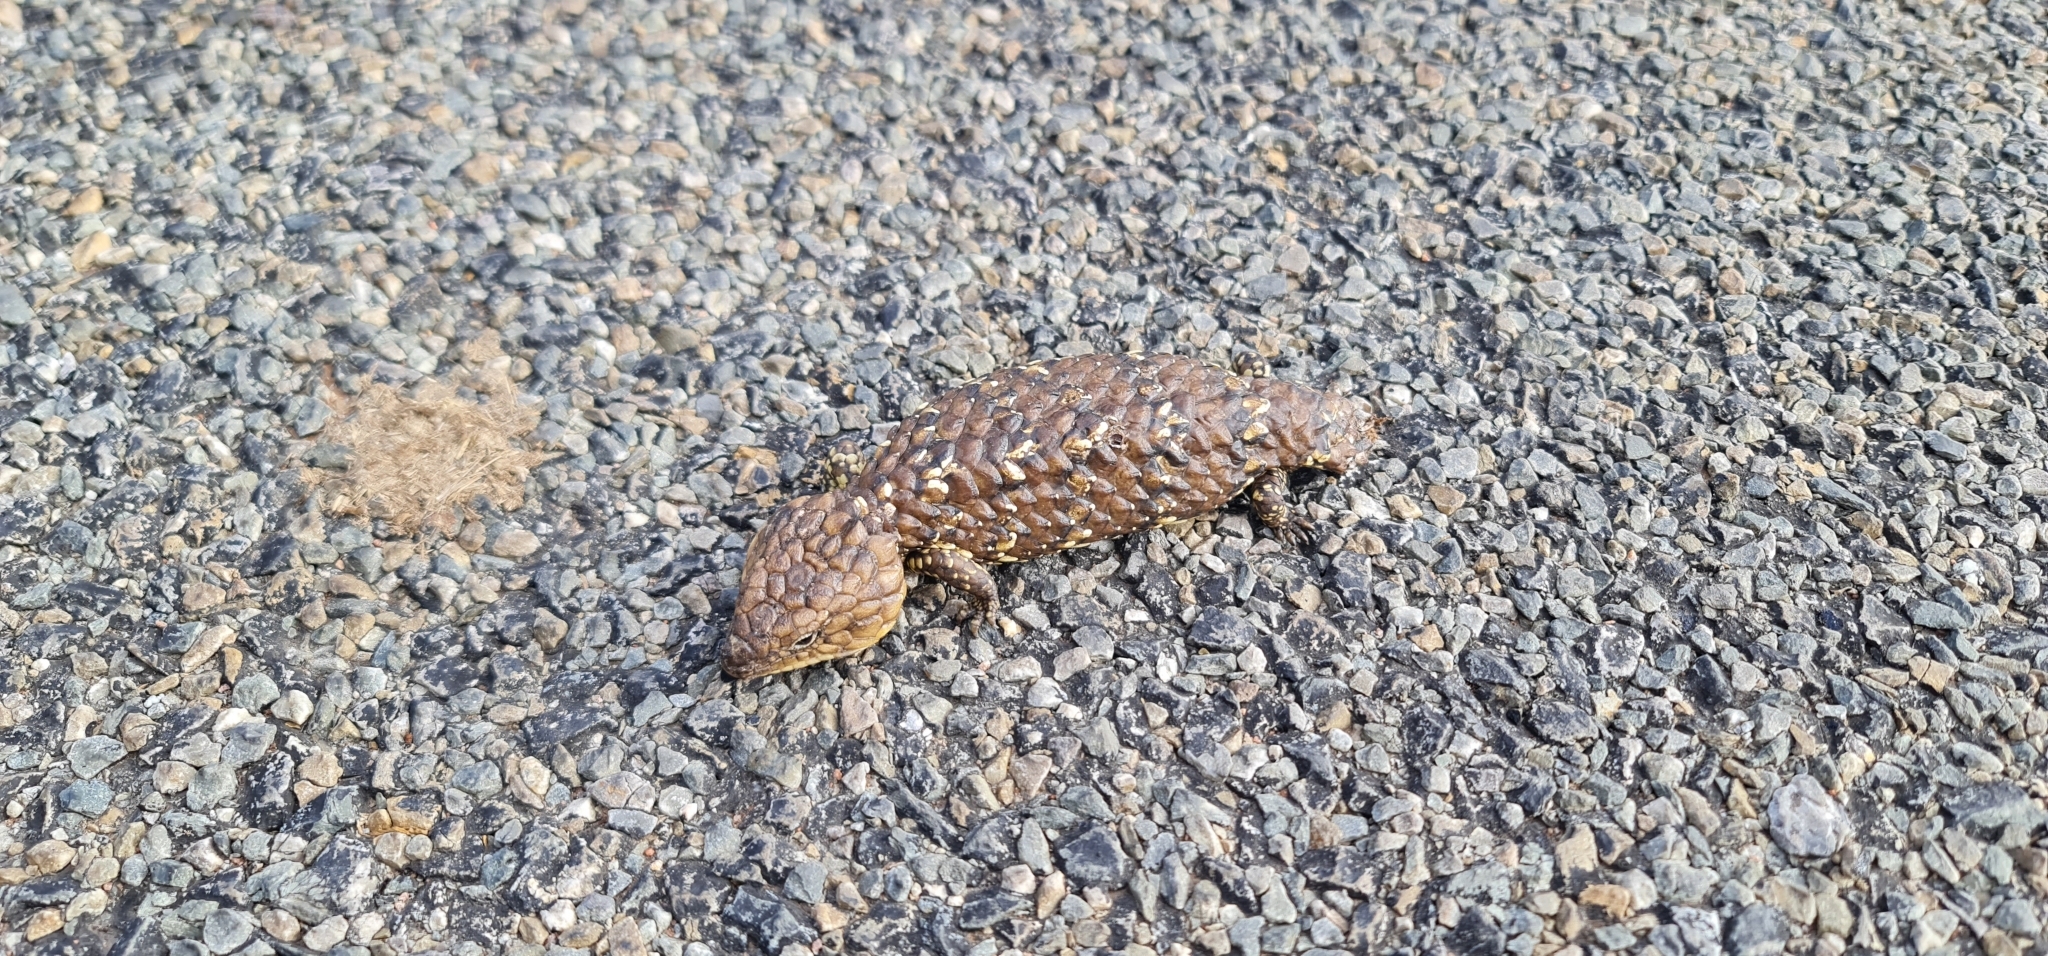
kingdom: Animalia
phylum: Chordata
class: Squamata
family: Scincidae
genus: Tiliqua
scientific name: Tiliqua rugosa
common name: Pinecone lizard
